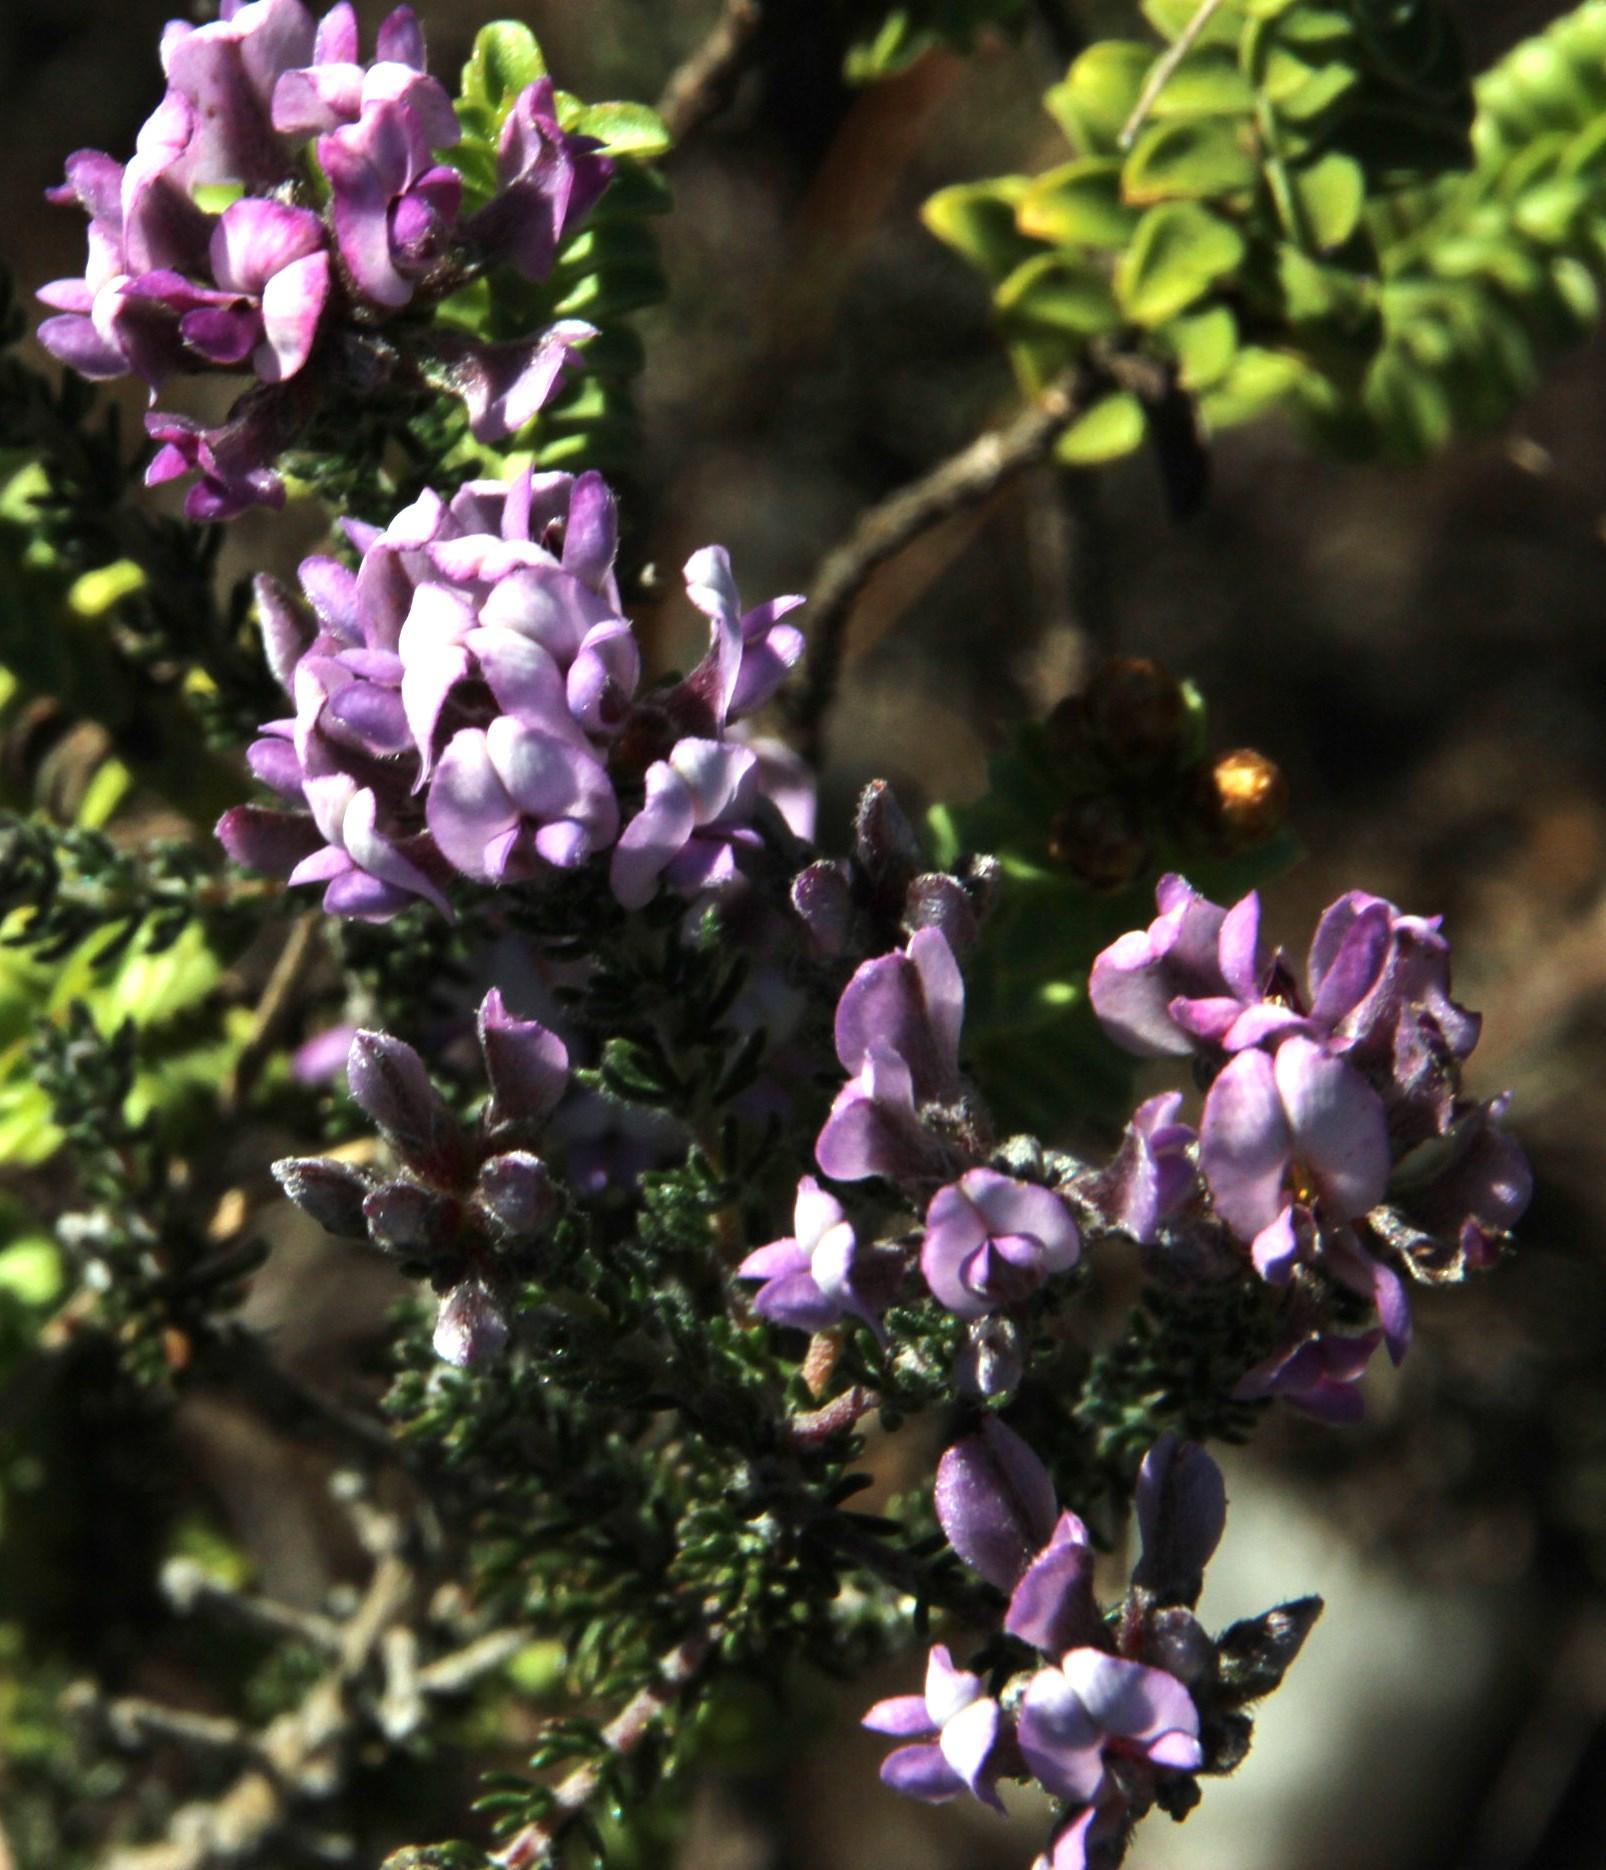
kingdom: Plantae
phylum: Tracheophyta
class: Magnoliopsida
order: Fabales
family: Fabaceae
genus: Aspalathus
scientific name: Aspalathus nigra
